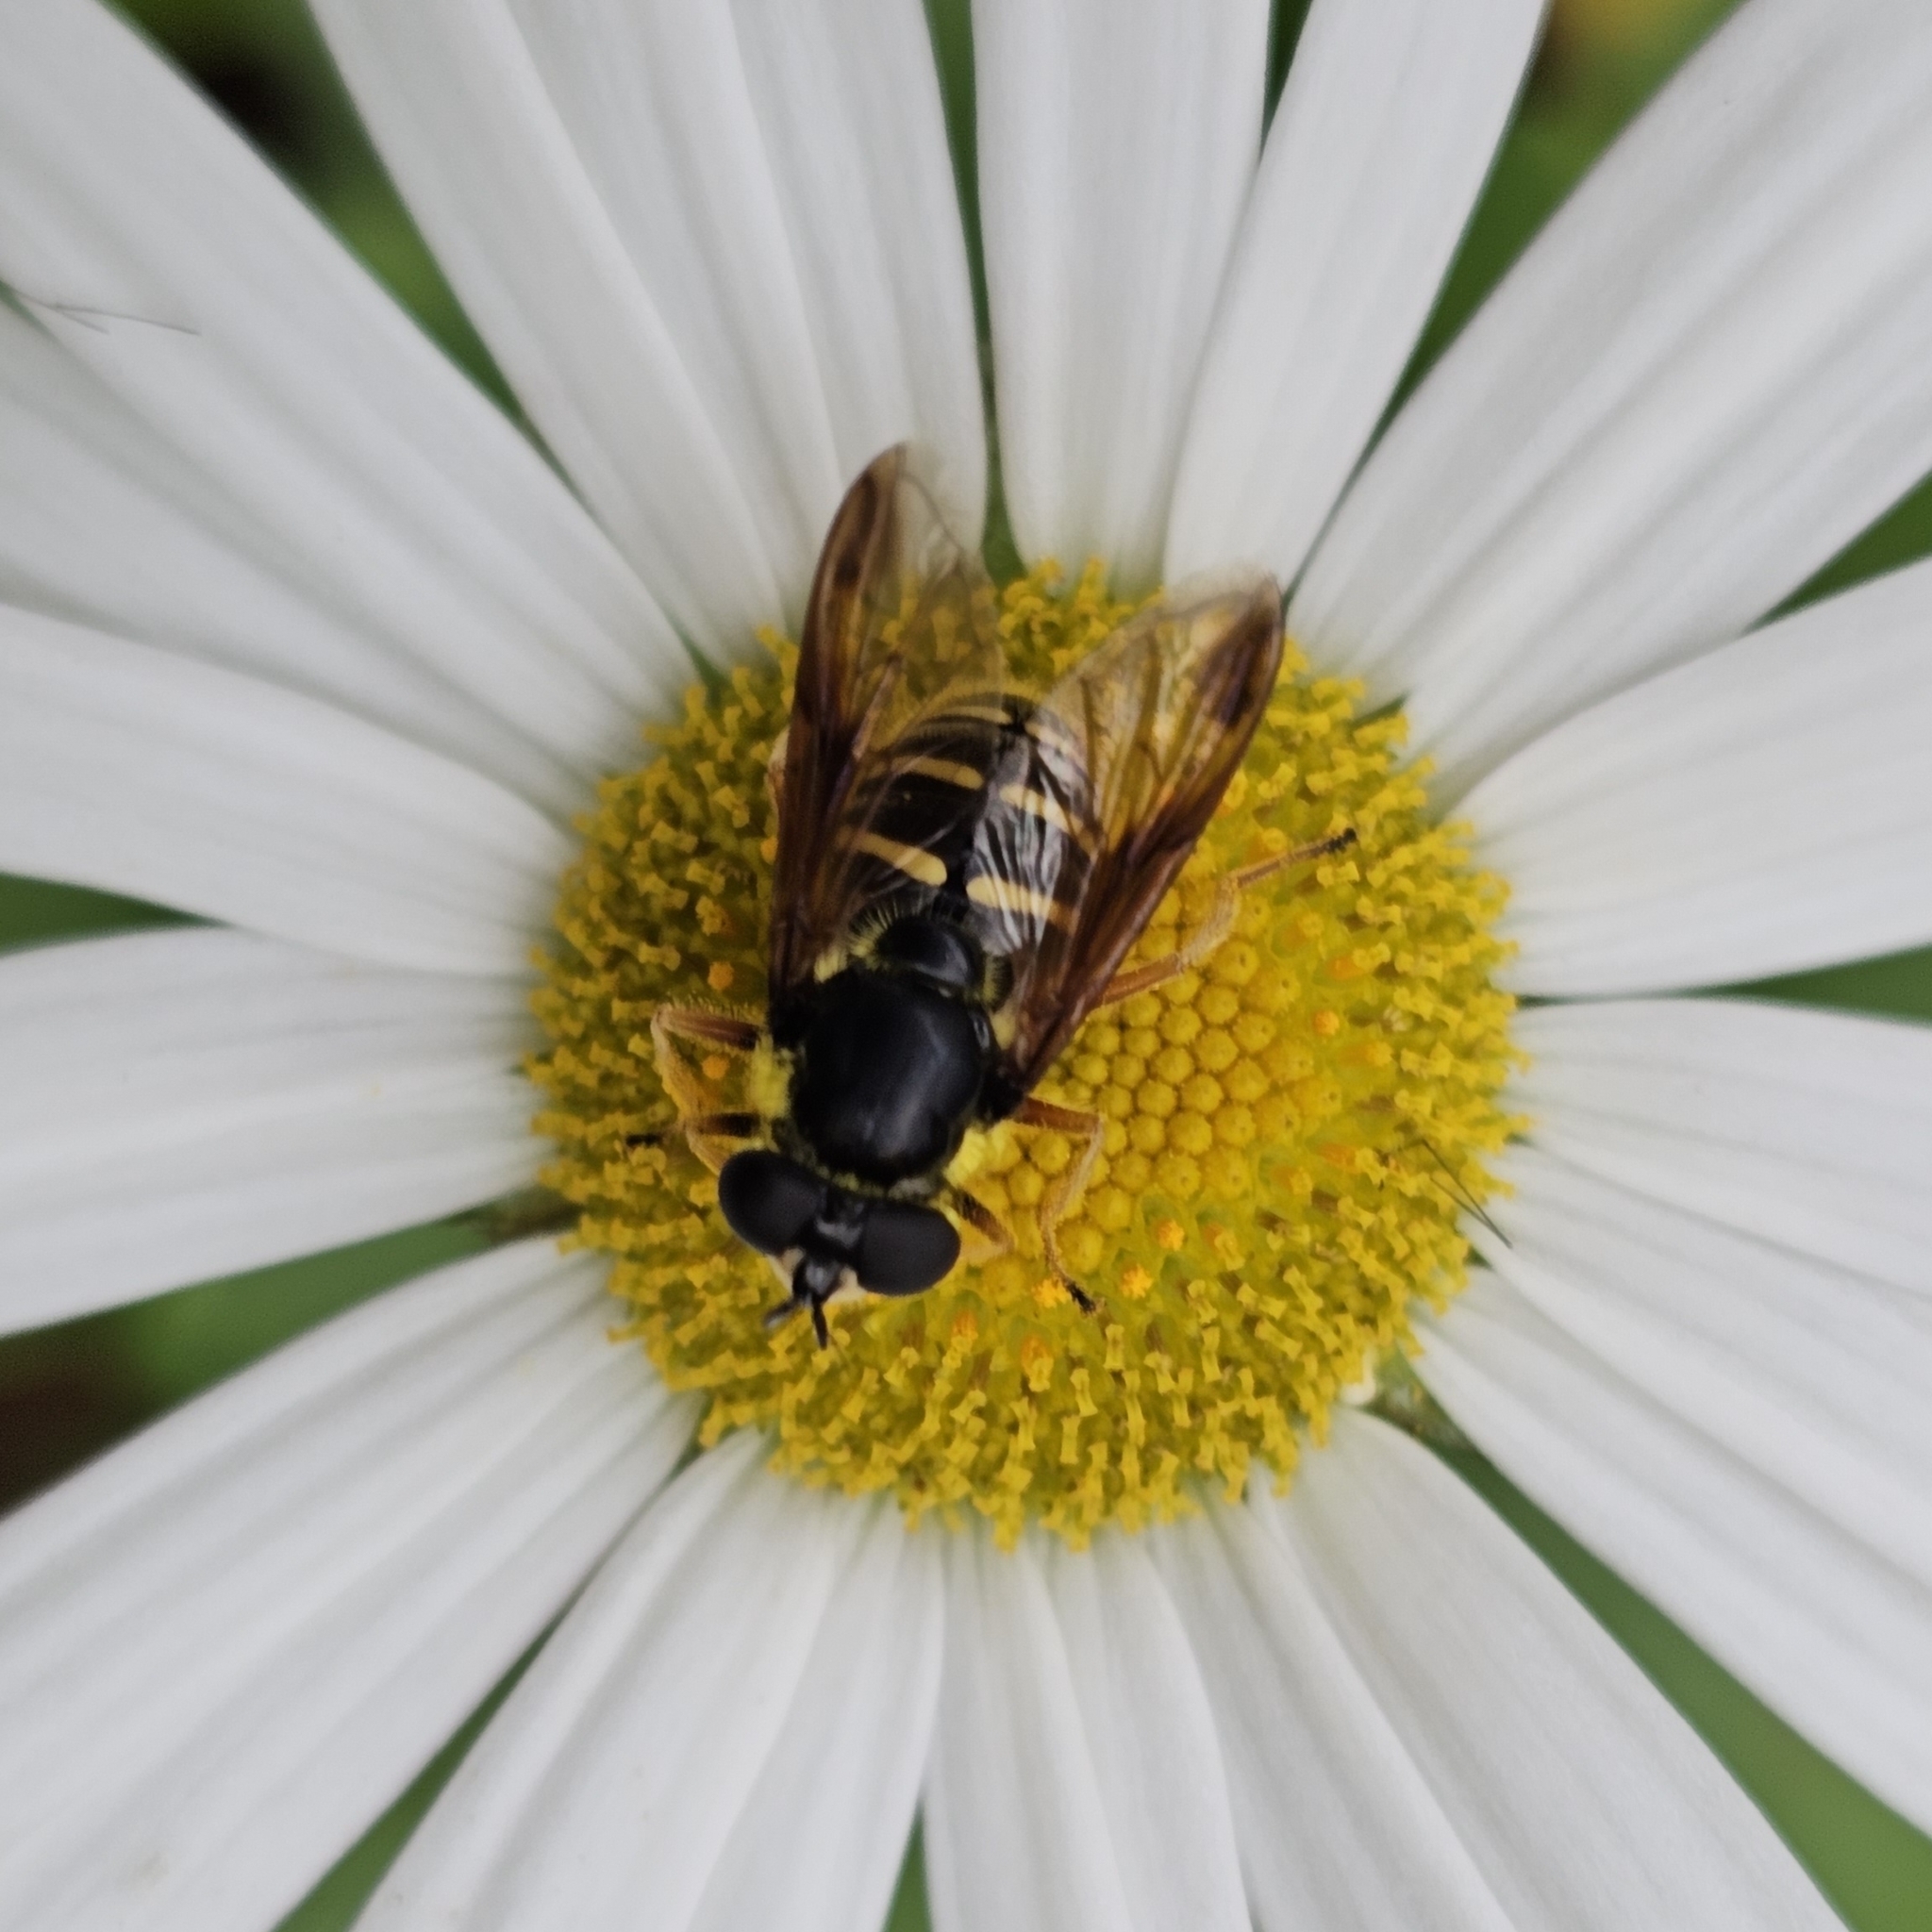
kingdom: Animalia
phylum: Arthropoda
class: Insecta
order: Diptera
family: Syrphidae
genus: Sericomyia
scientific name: Sericomyia chrysotoxoides
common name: Oblique-banded pond fly
